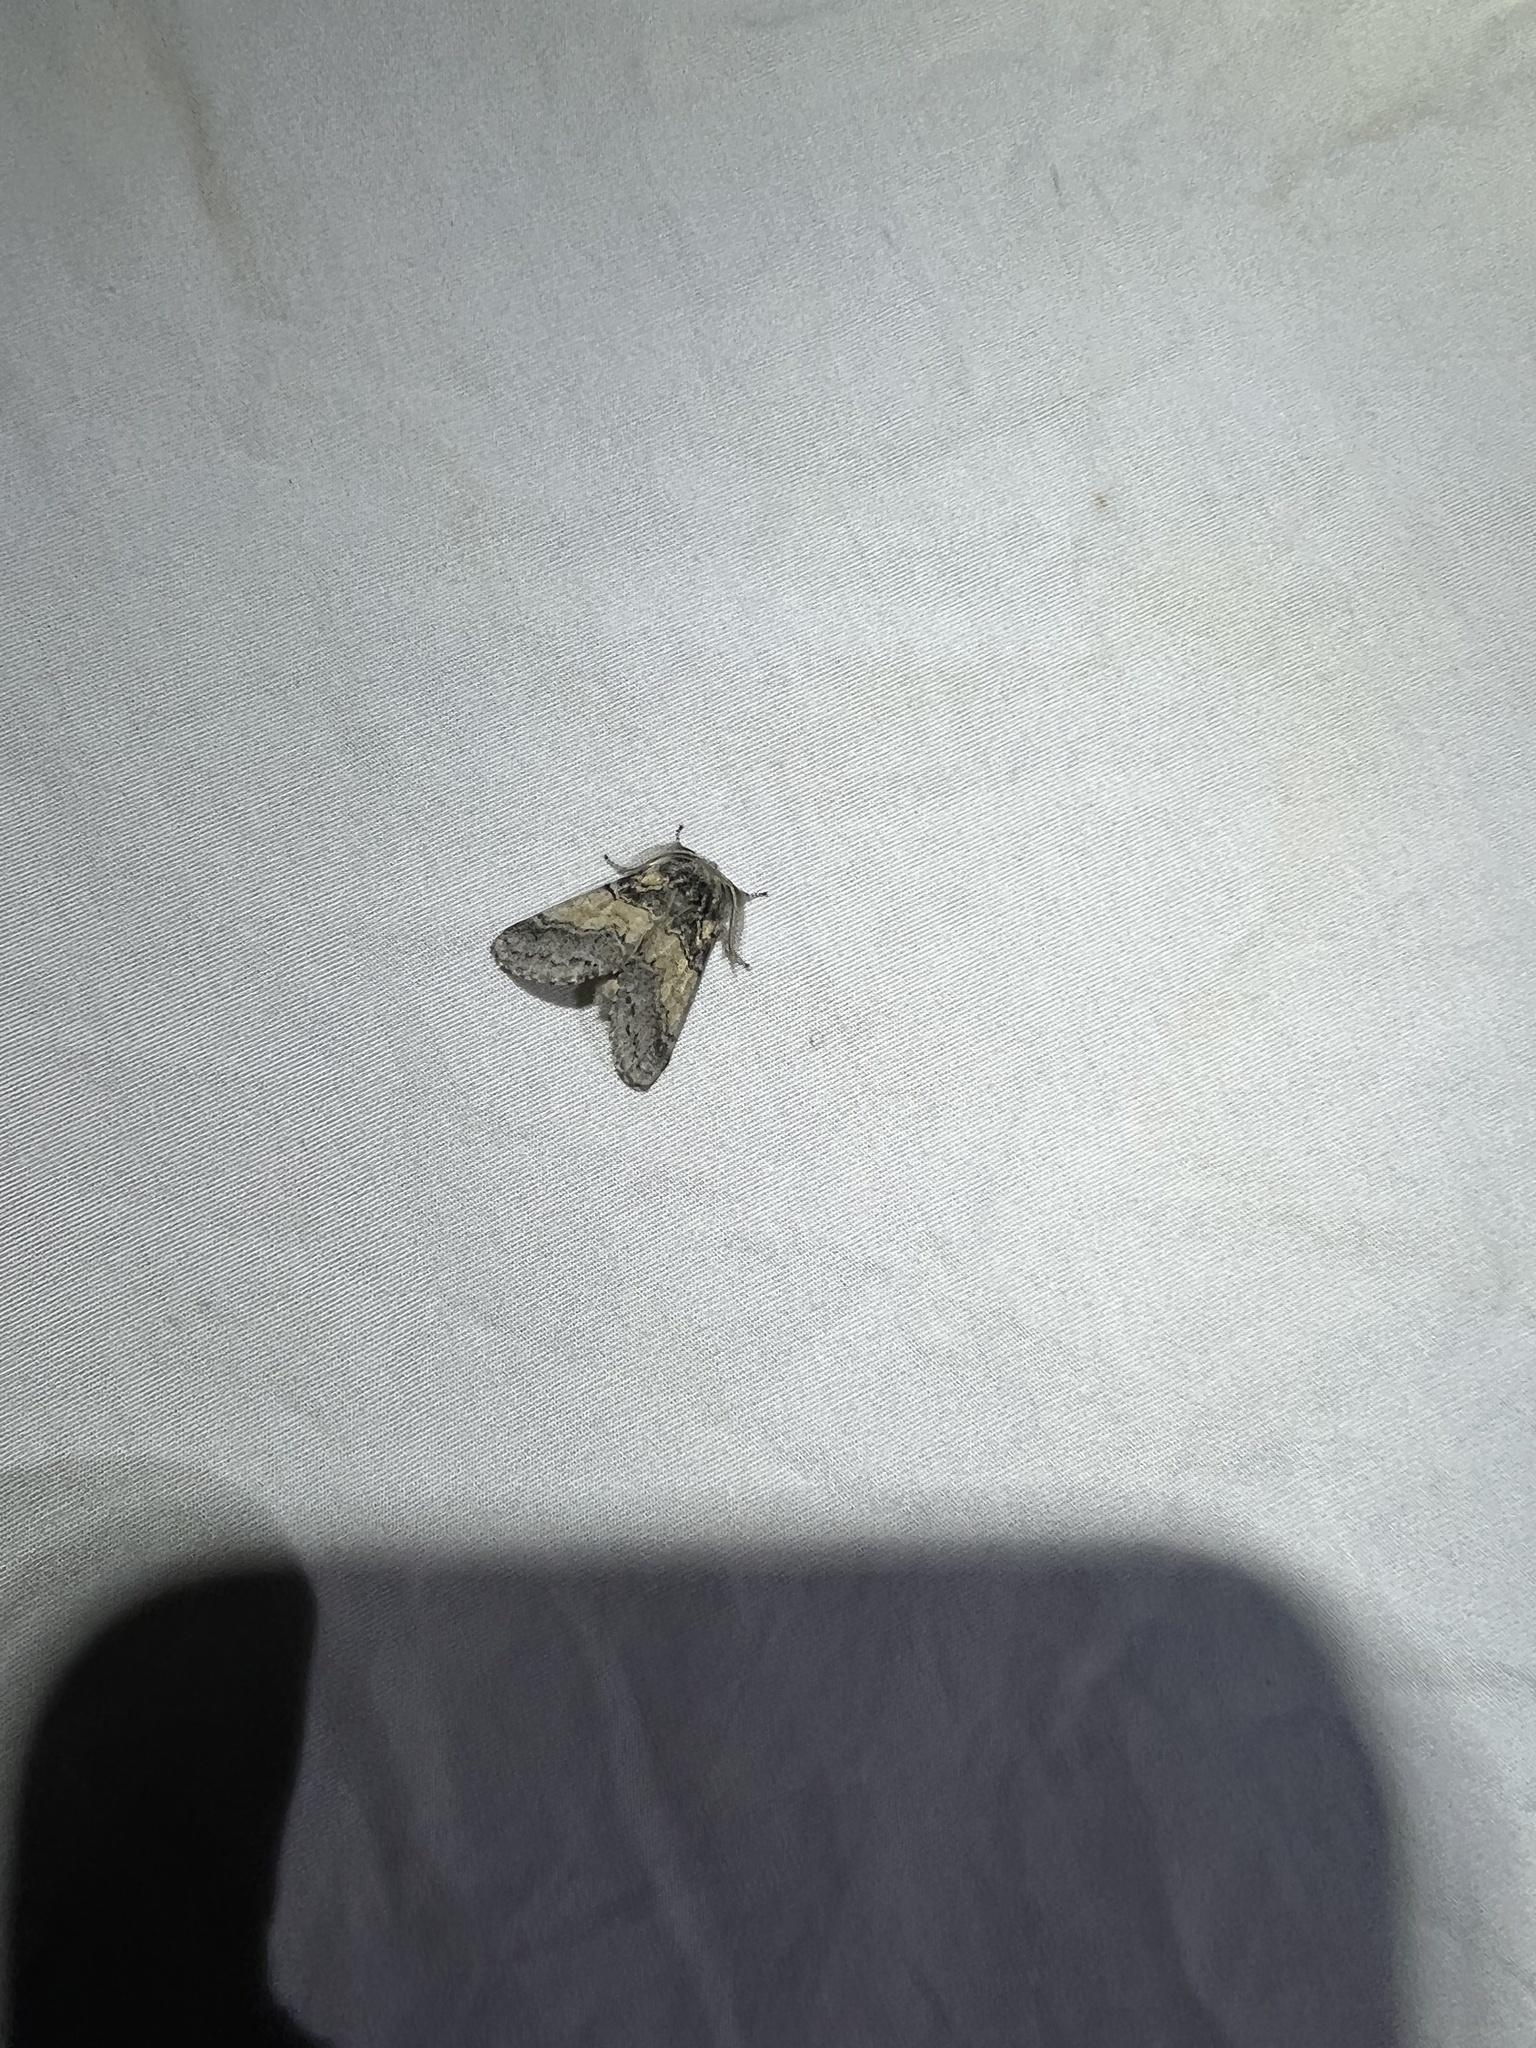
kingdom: Animalia
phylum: Arthropoda
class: Insecta
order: Lepidoptera
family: Notodontidae
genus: Gluphisia
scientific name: Gluphisia septentrionis
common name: Common gluphisia
